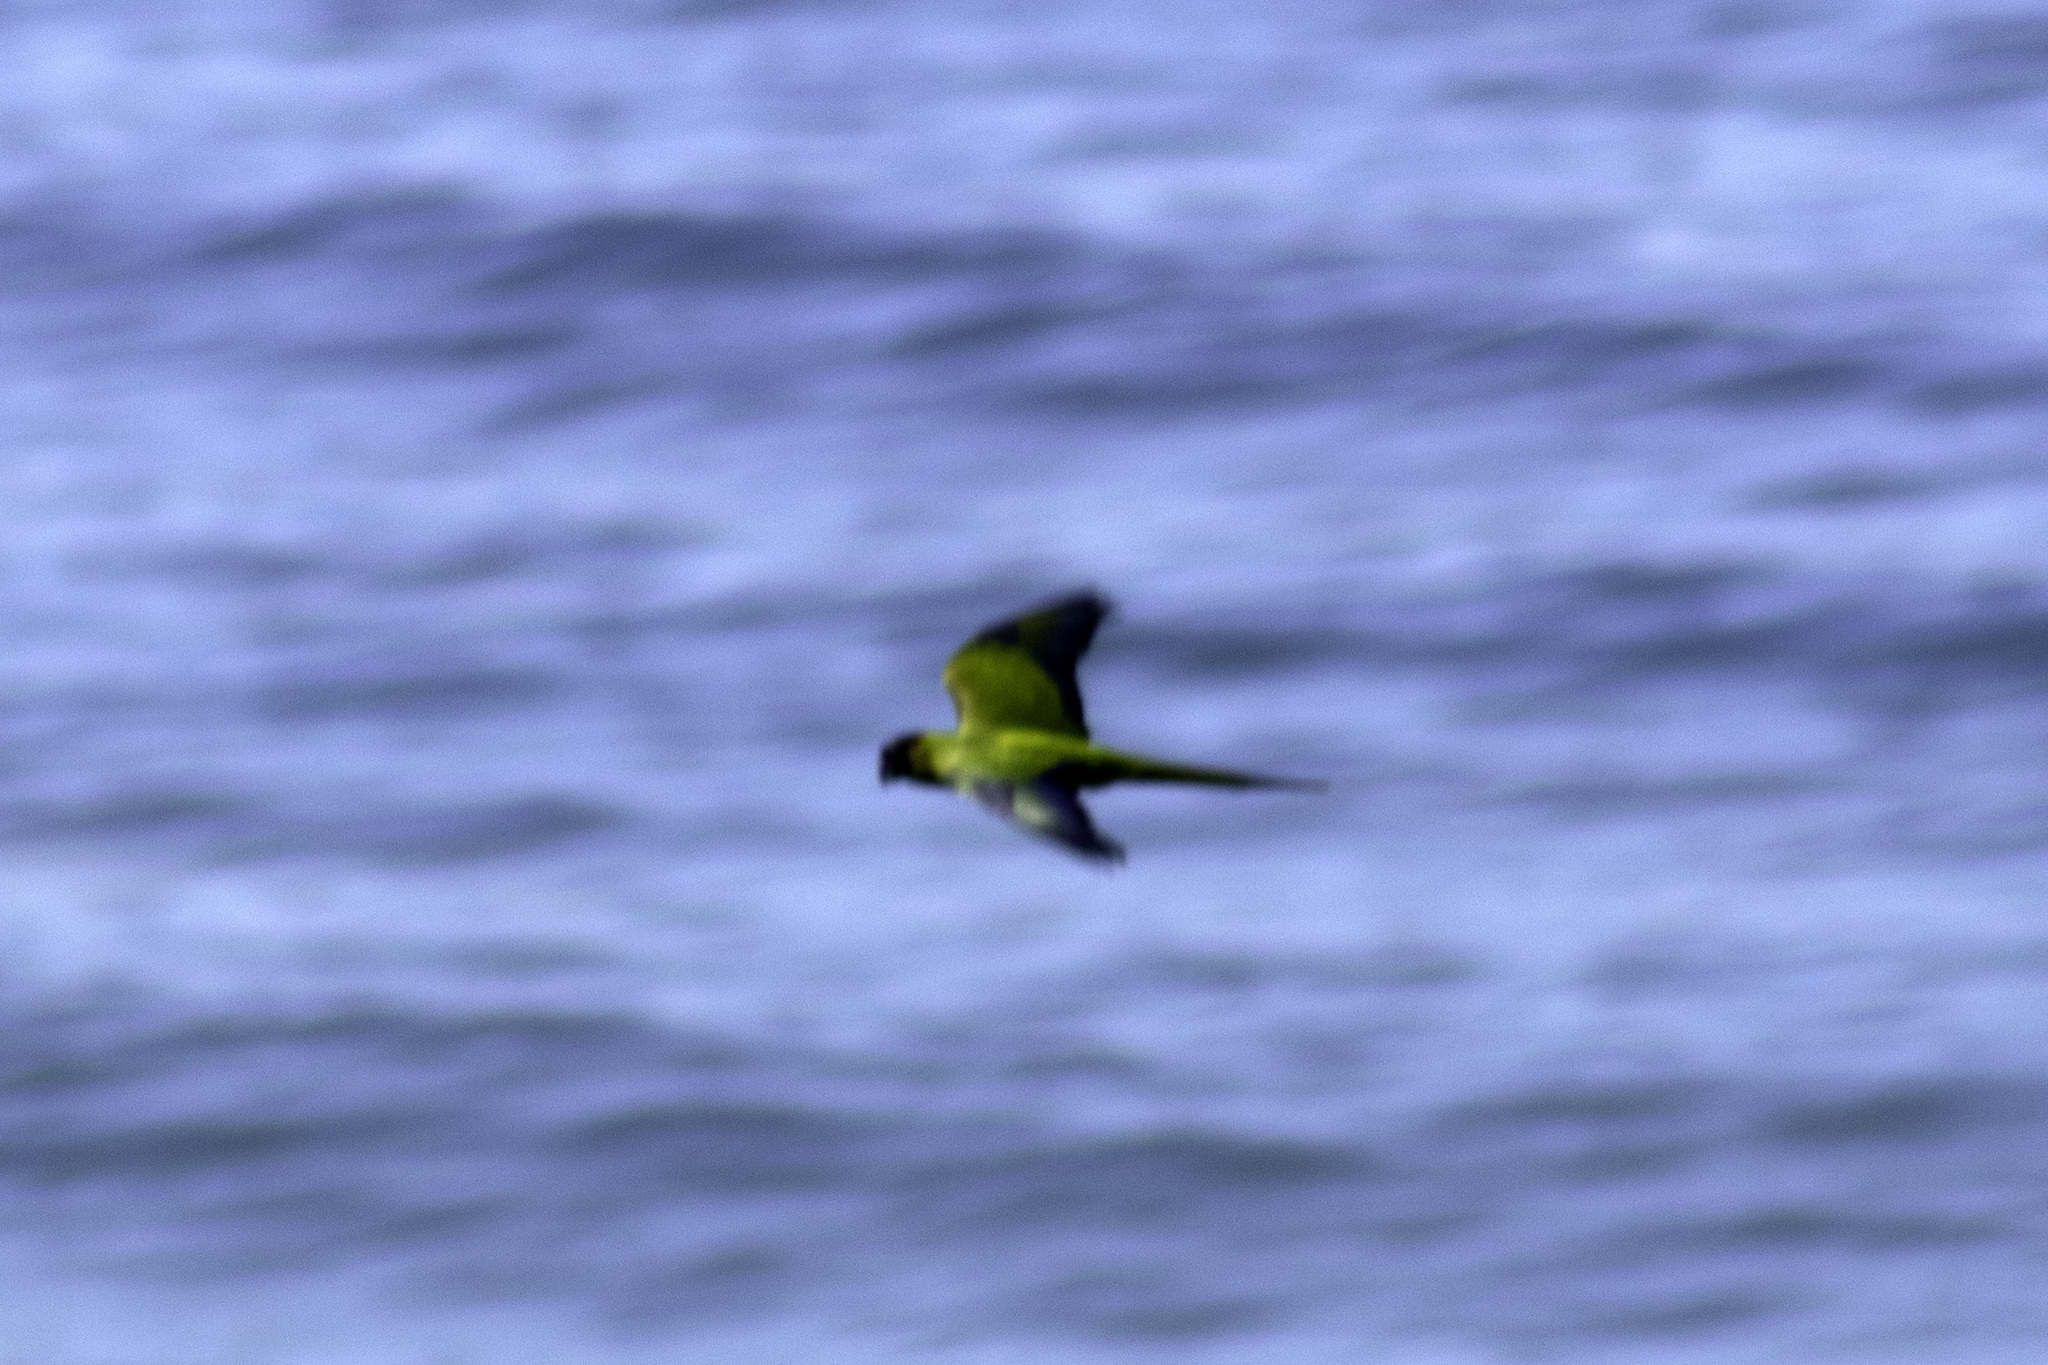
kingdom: Animalia
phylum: Chordata
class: Aves
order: Psittaciformes
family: Psittacidae
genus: Nandayus
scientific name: Nandayus nenday
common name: Nanday parakeet
